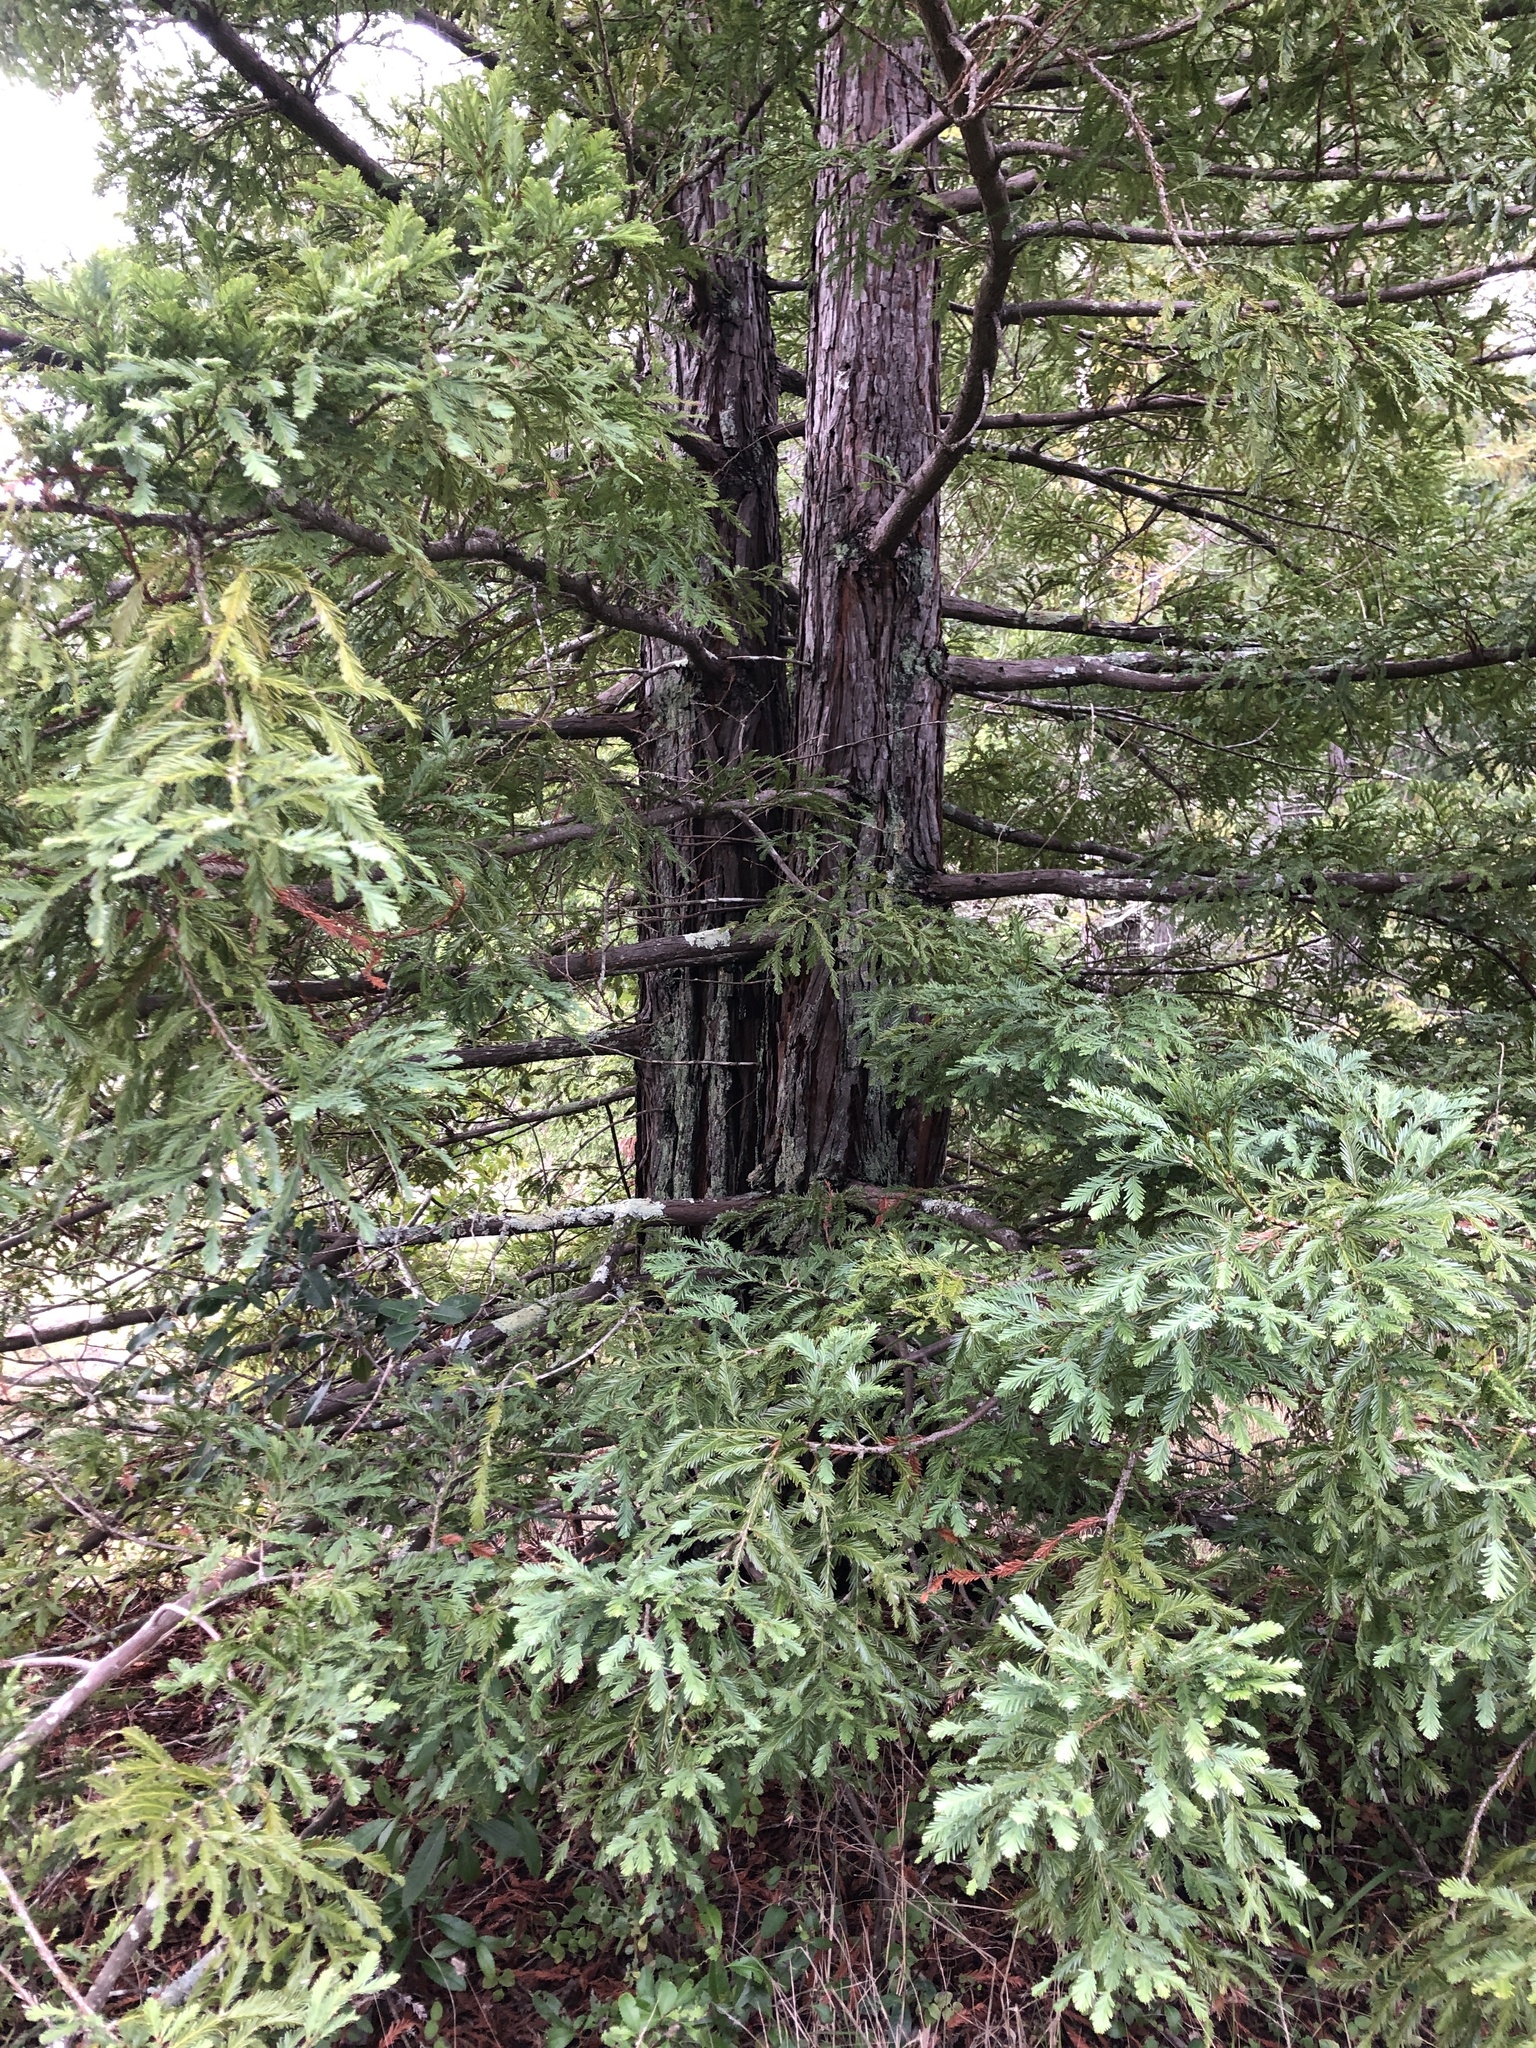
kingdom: Plantae
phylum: Tracheophyta
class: Pinopsida
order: Pinales
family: Cupressaceae
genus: Sequoia
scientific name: Sequoia sempervirens
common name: Coast redwood
